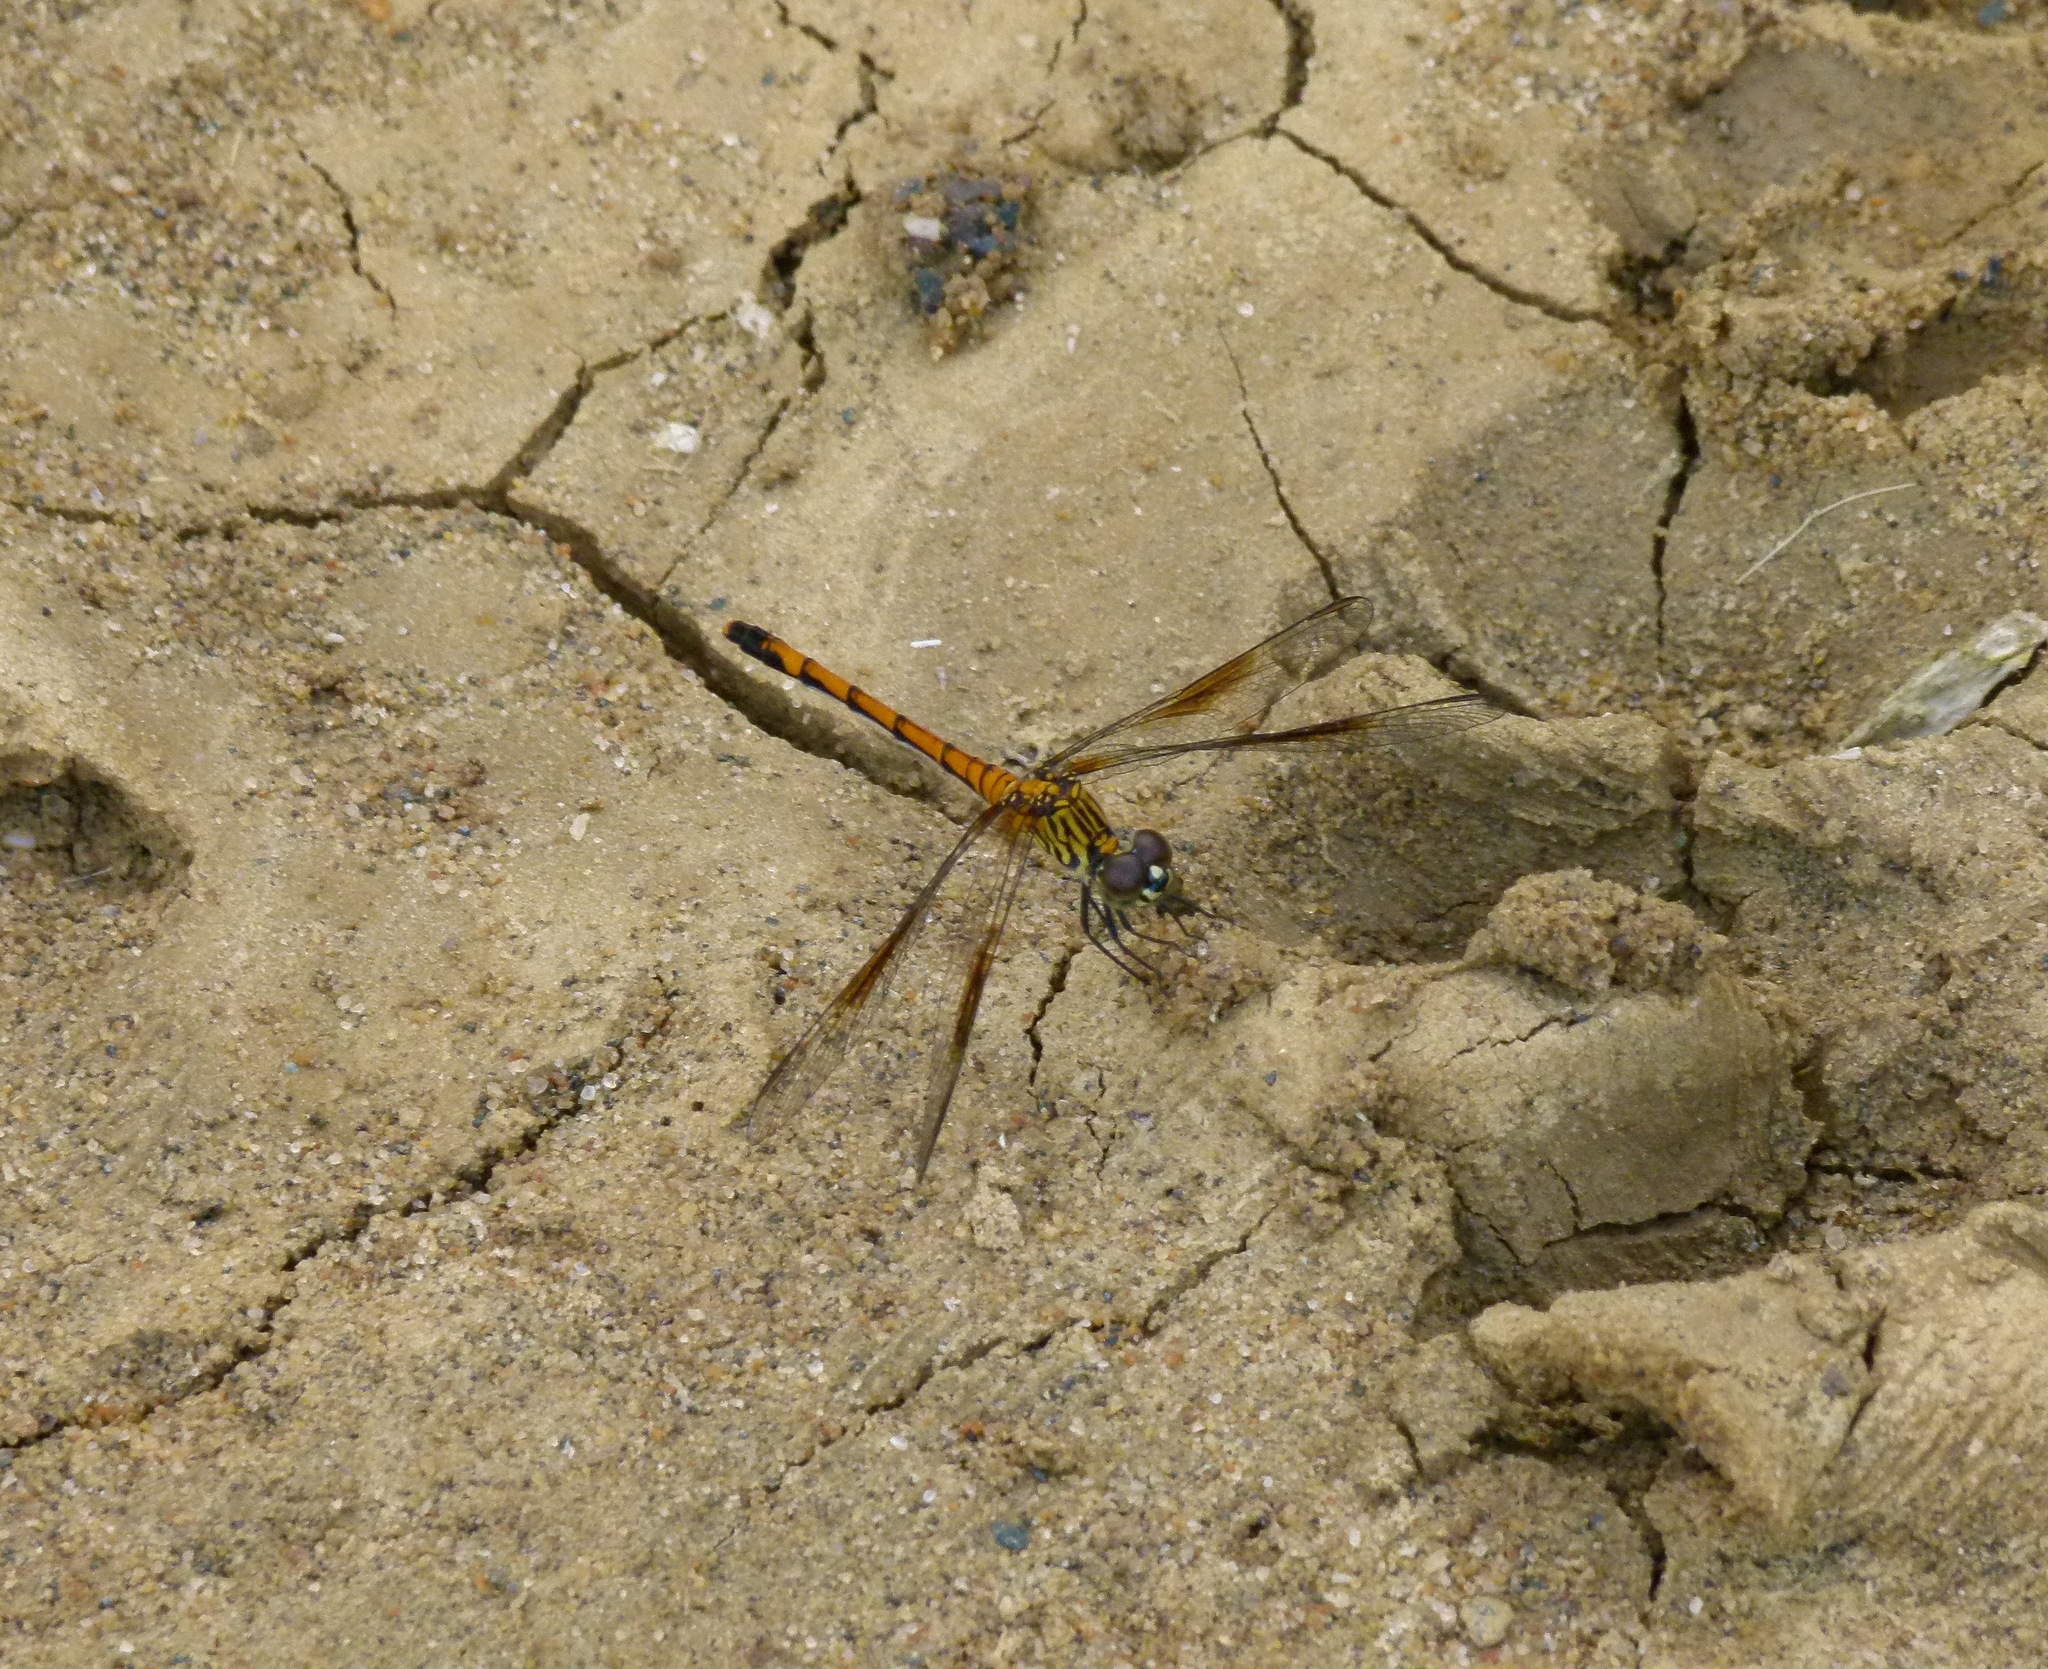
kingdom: Animalia
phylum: Arthropoda
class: Insecta
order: Odonata
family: Libellulidae
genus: Erythrodiplax
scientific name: Erythrodiplax berenice
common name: Seaside dragonlet
